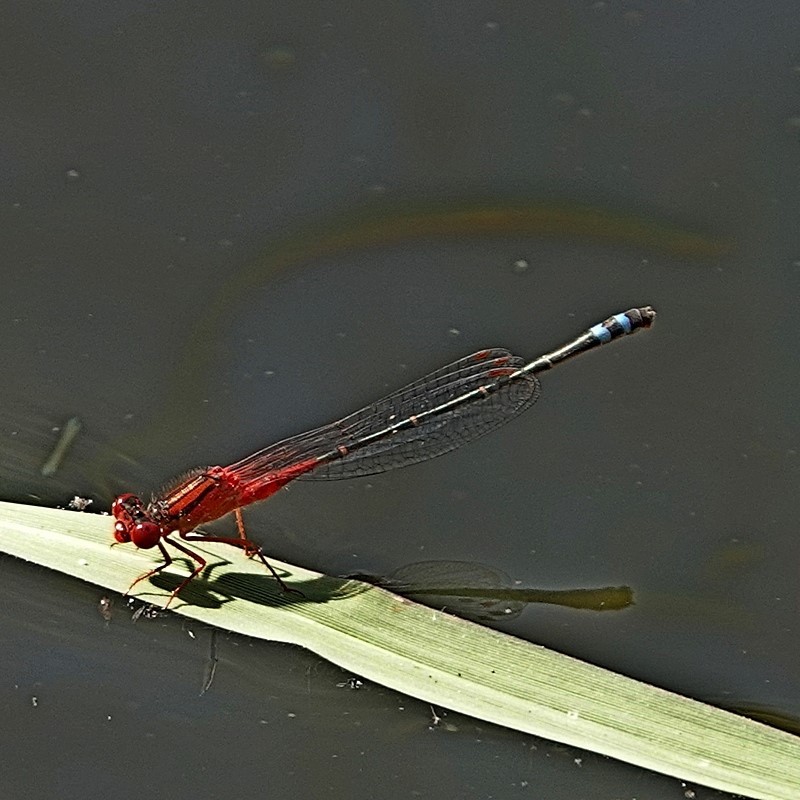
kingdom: Animalia
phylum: Arthropoda
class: Insecta
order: Odonata
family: Coenagrionidae
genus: Xanthagrion
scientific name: Xanthagrion erythroneurum
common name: Red and blue damsel
